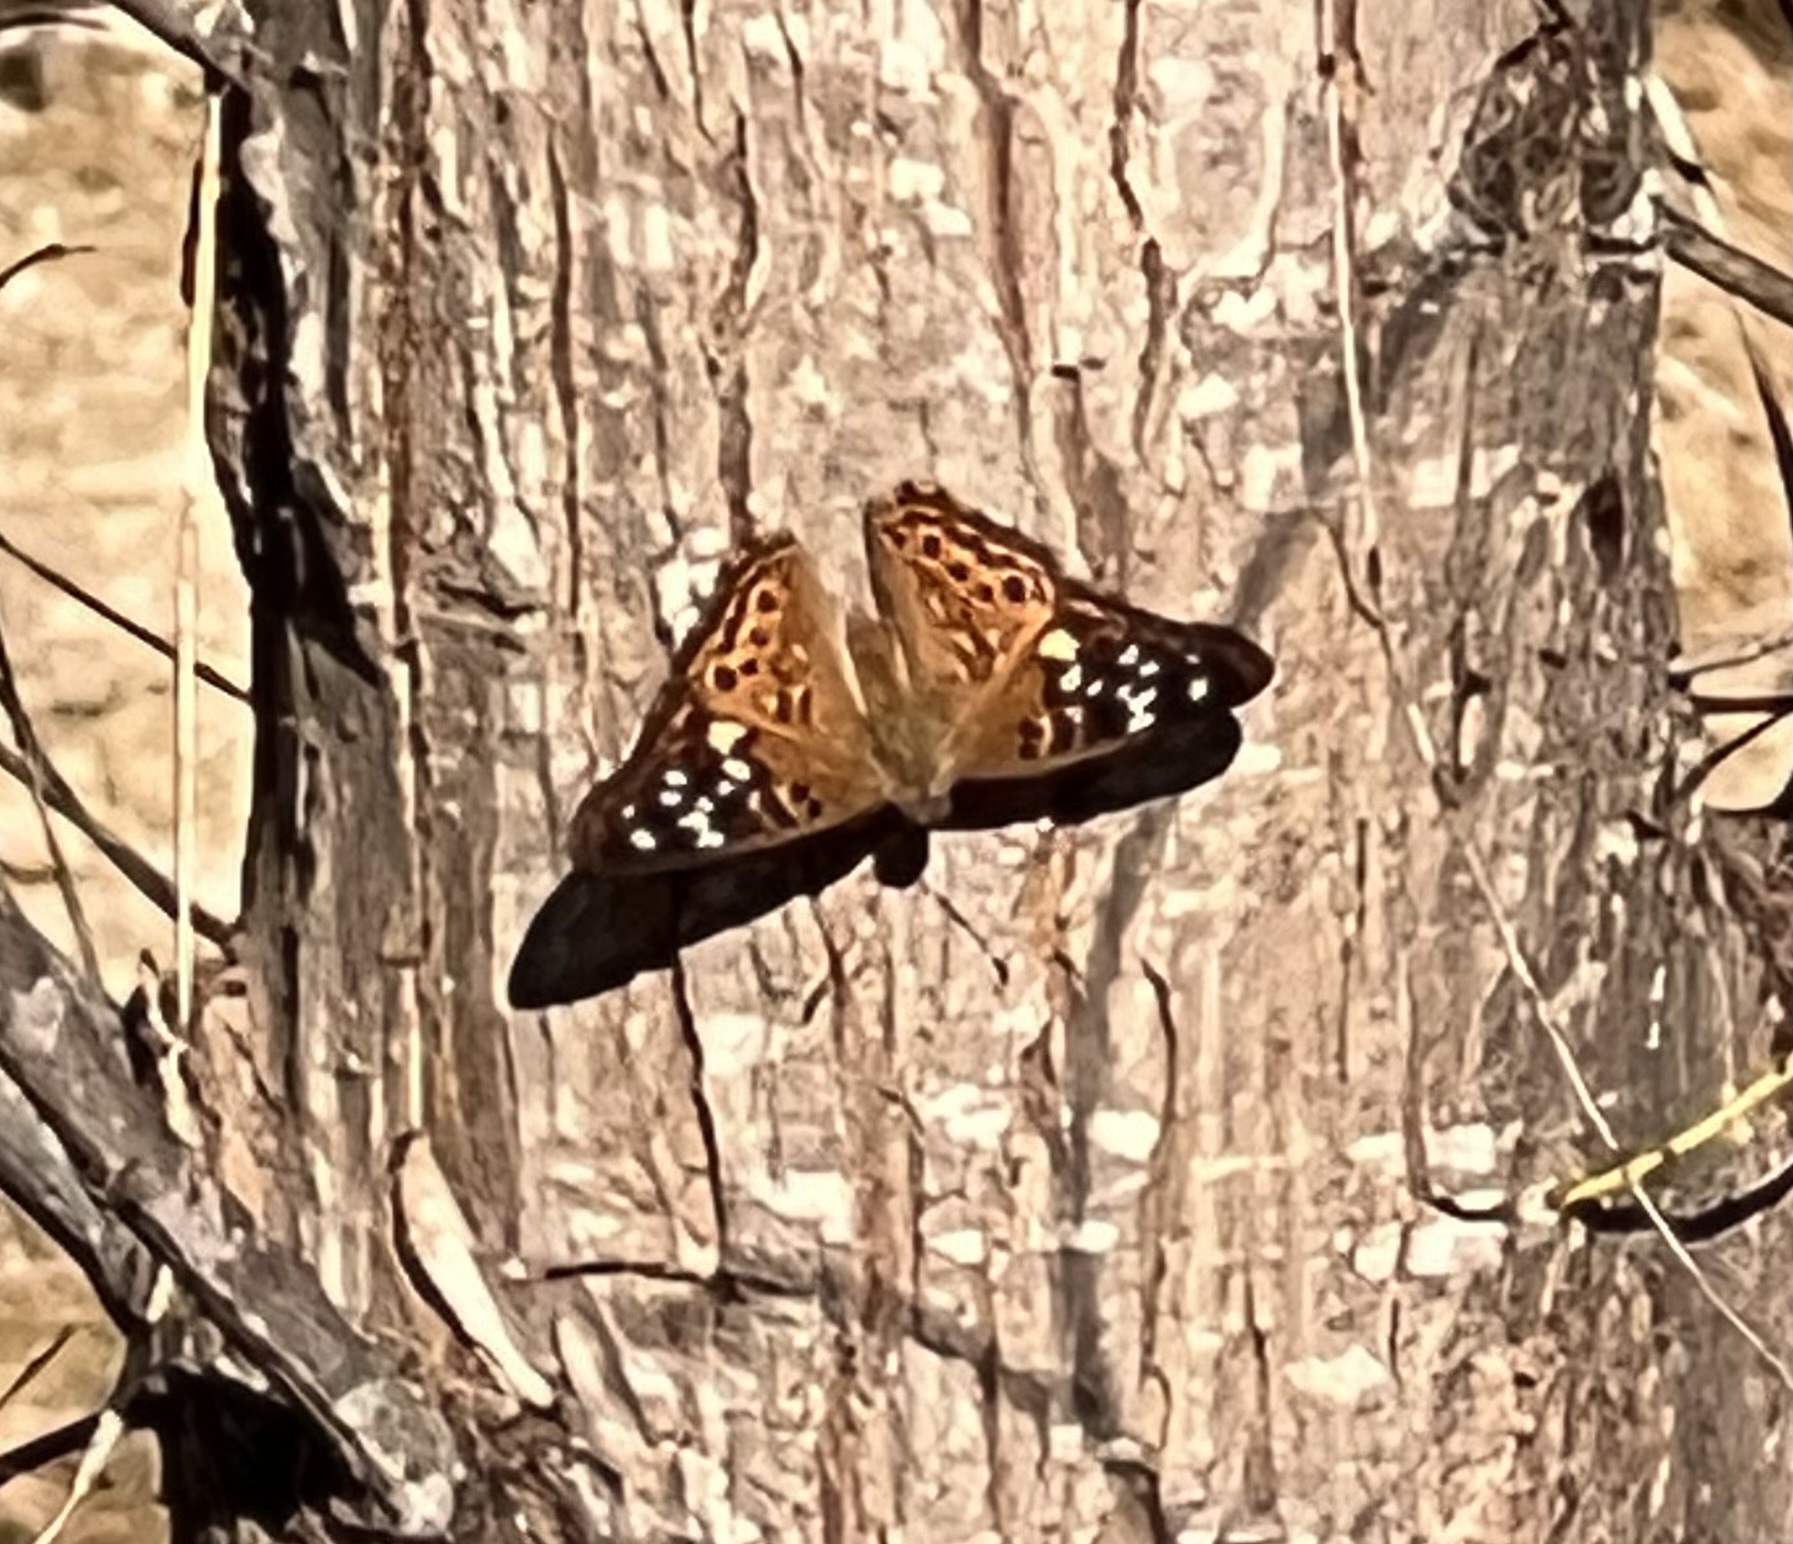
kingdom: Animalia
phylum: Arthropoda
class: Insecta
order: Lepidoptera
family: Nymphalidae
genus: Asterocampa
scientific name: Asterocampa celtis
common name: Hackberry emperor
